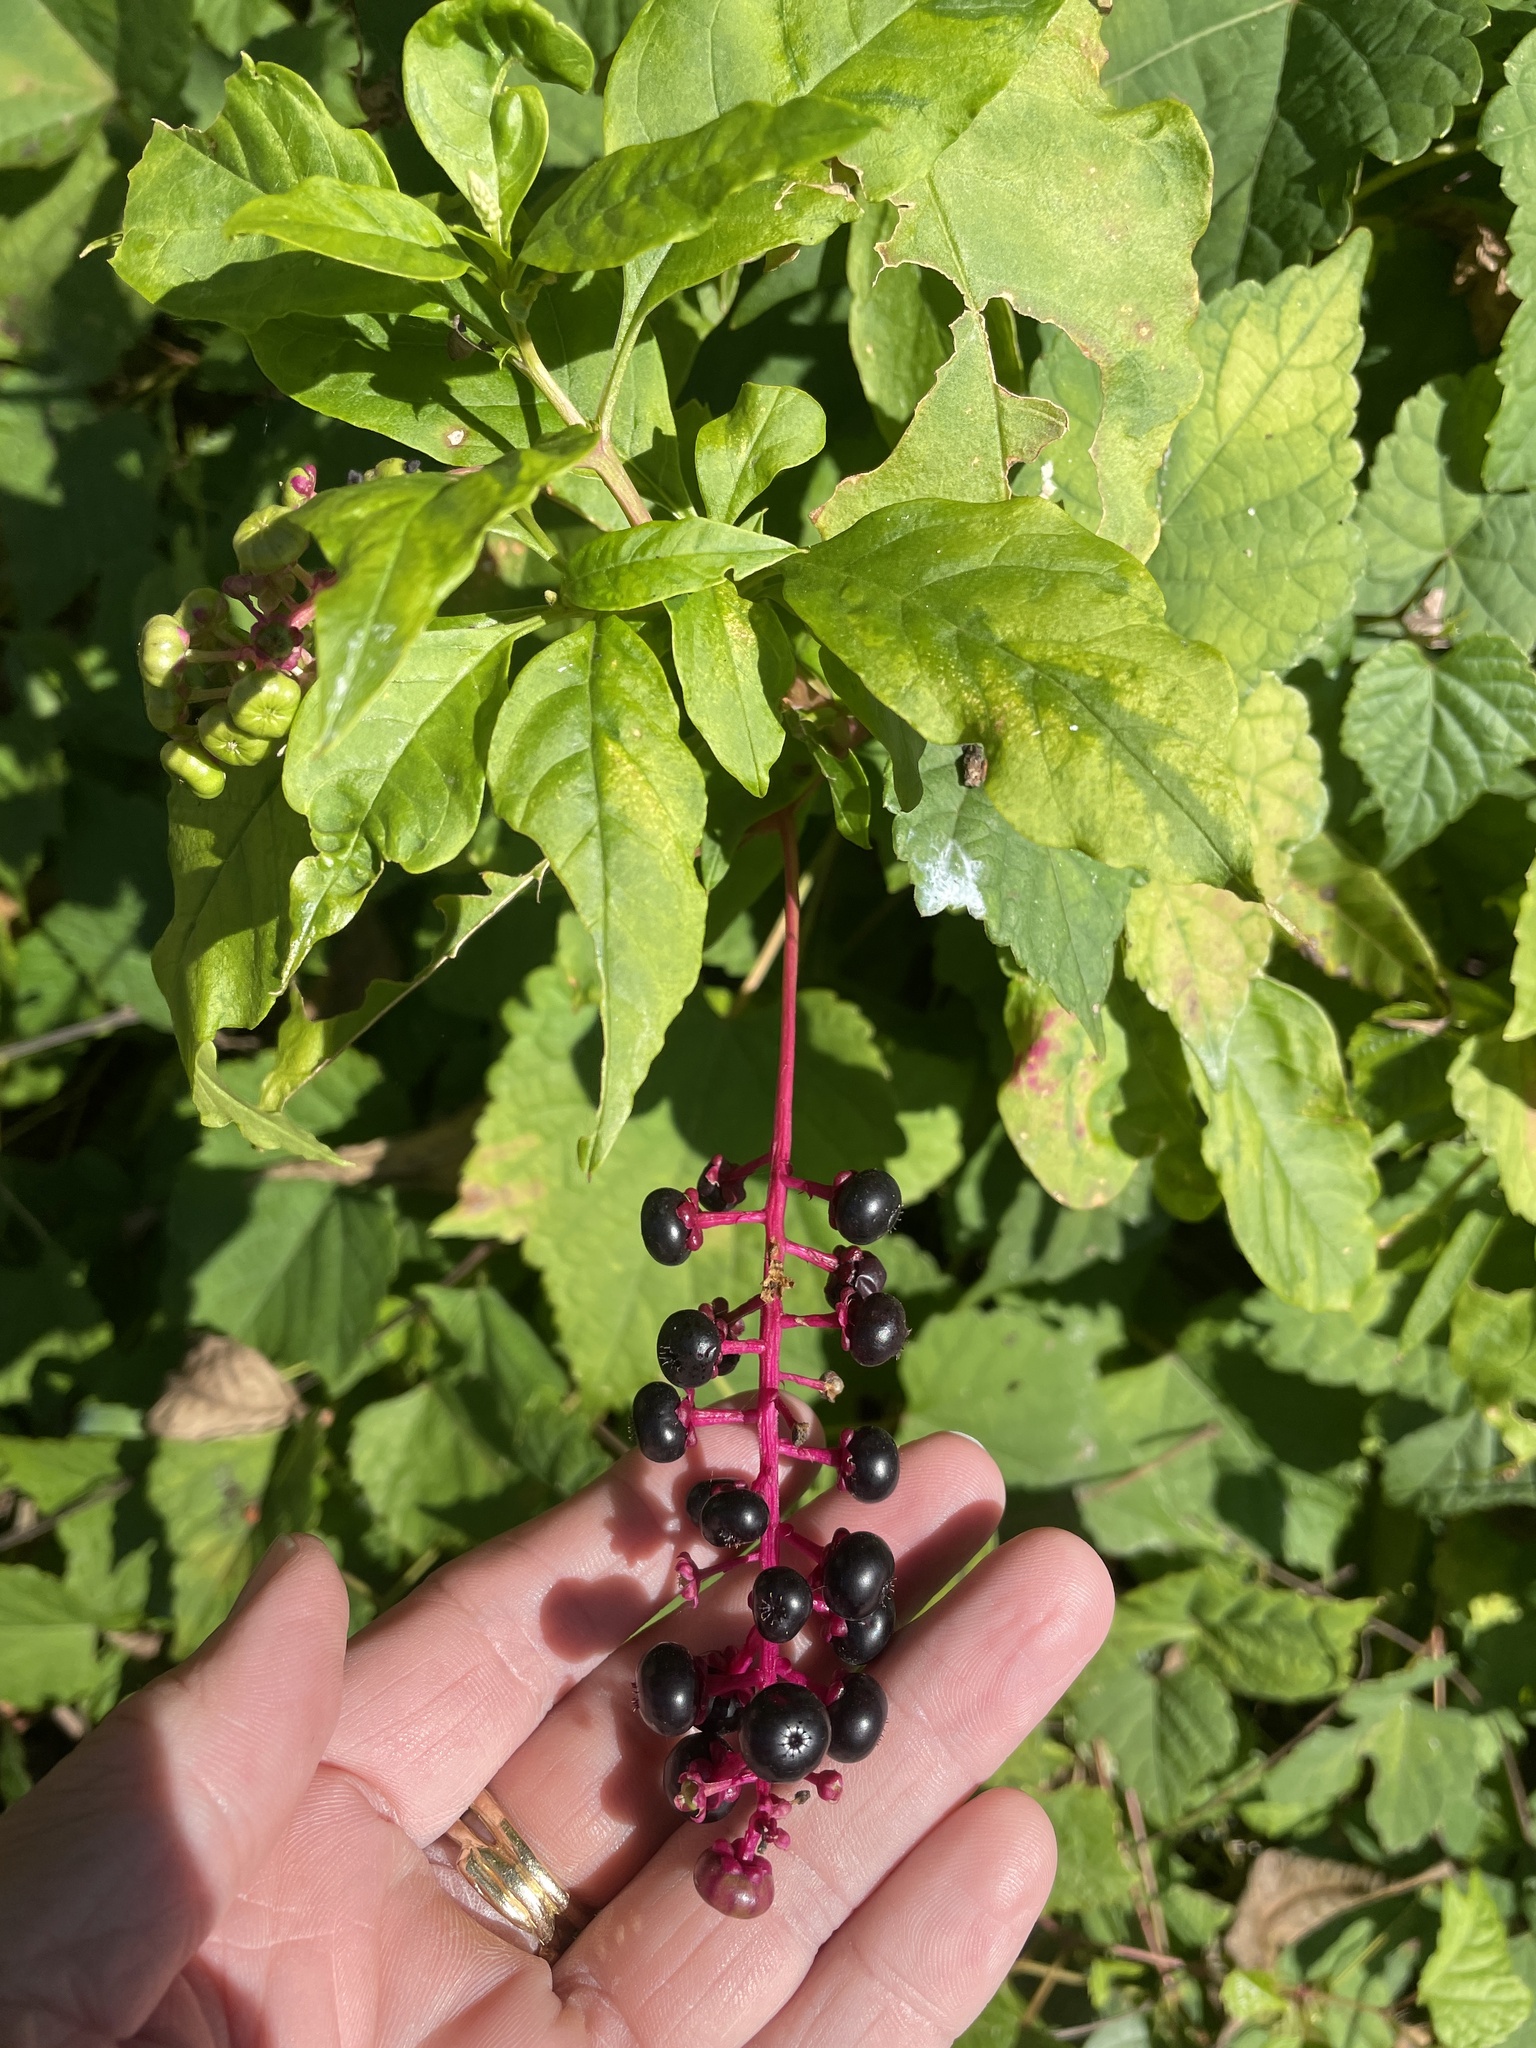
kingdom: Plantae
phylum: Tracheophyta
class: Magnoliopsida
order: Caryophyllales
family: Phytolaccaceae
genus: Phytolacca
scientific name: Phytolacca americana
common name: American pokeweed
